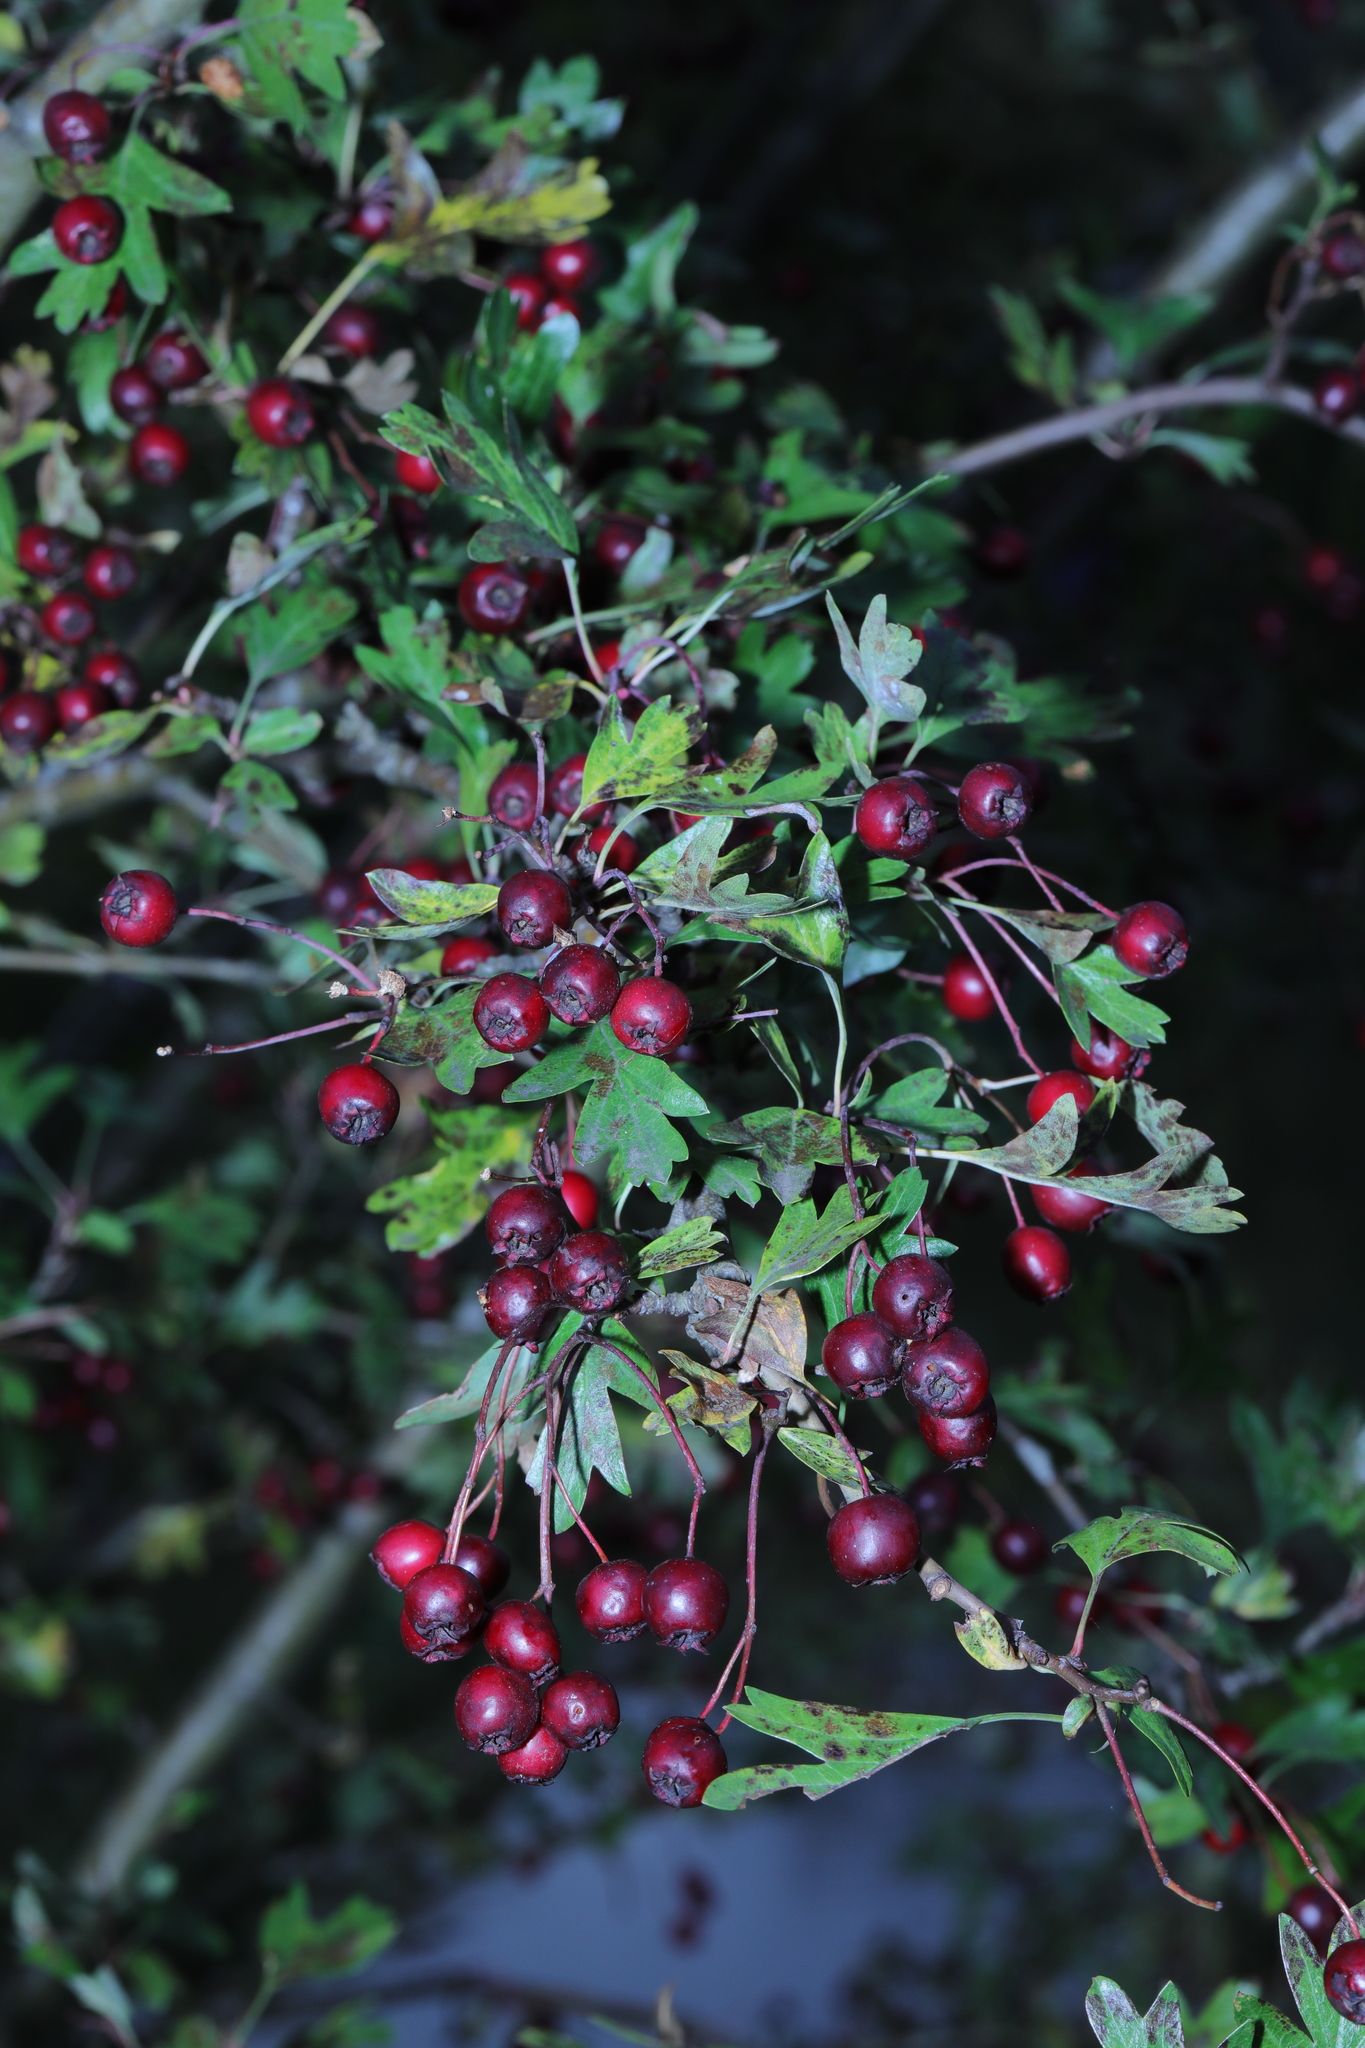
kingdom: Plantae
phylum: Tracheophyta
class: Magnoliopsida
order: Rosales
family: Rosaceae
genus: Crataegus
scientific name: Crataegus monogyna
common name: Hawthorn
